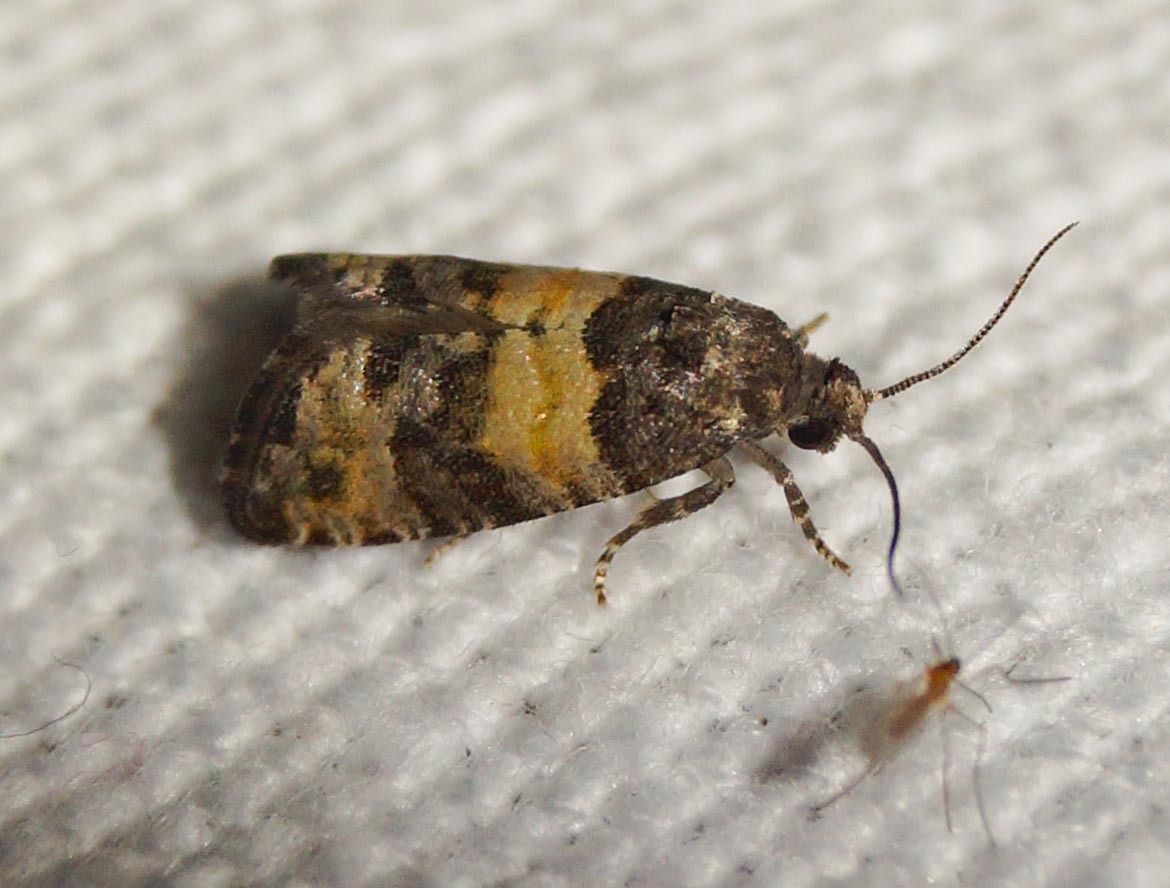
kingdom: Animalia
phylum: Arthropoda
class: Insecta
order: Lepidoptera
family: Tortricidae
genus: Piniphila
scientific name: Piniphila bifasciana
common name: Pine marble
